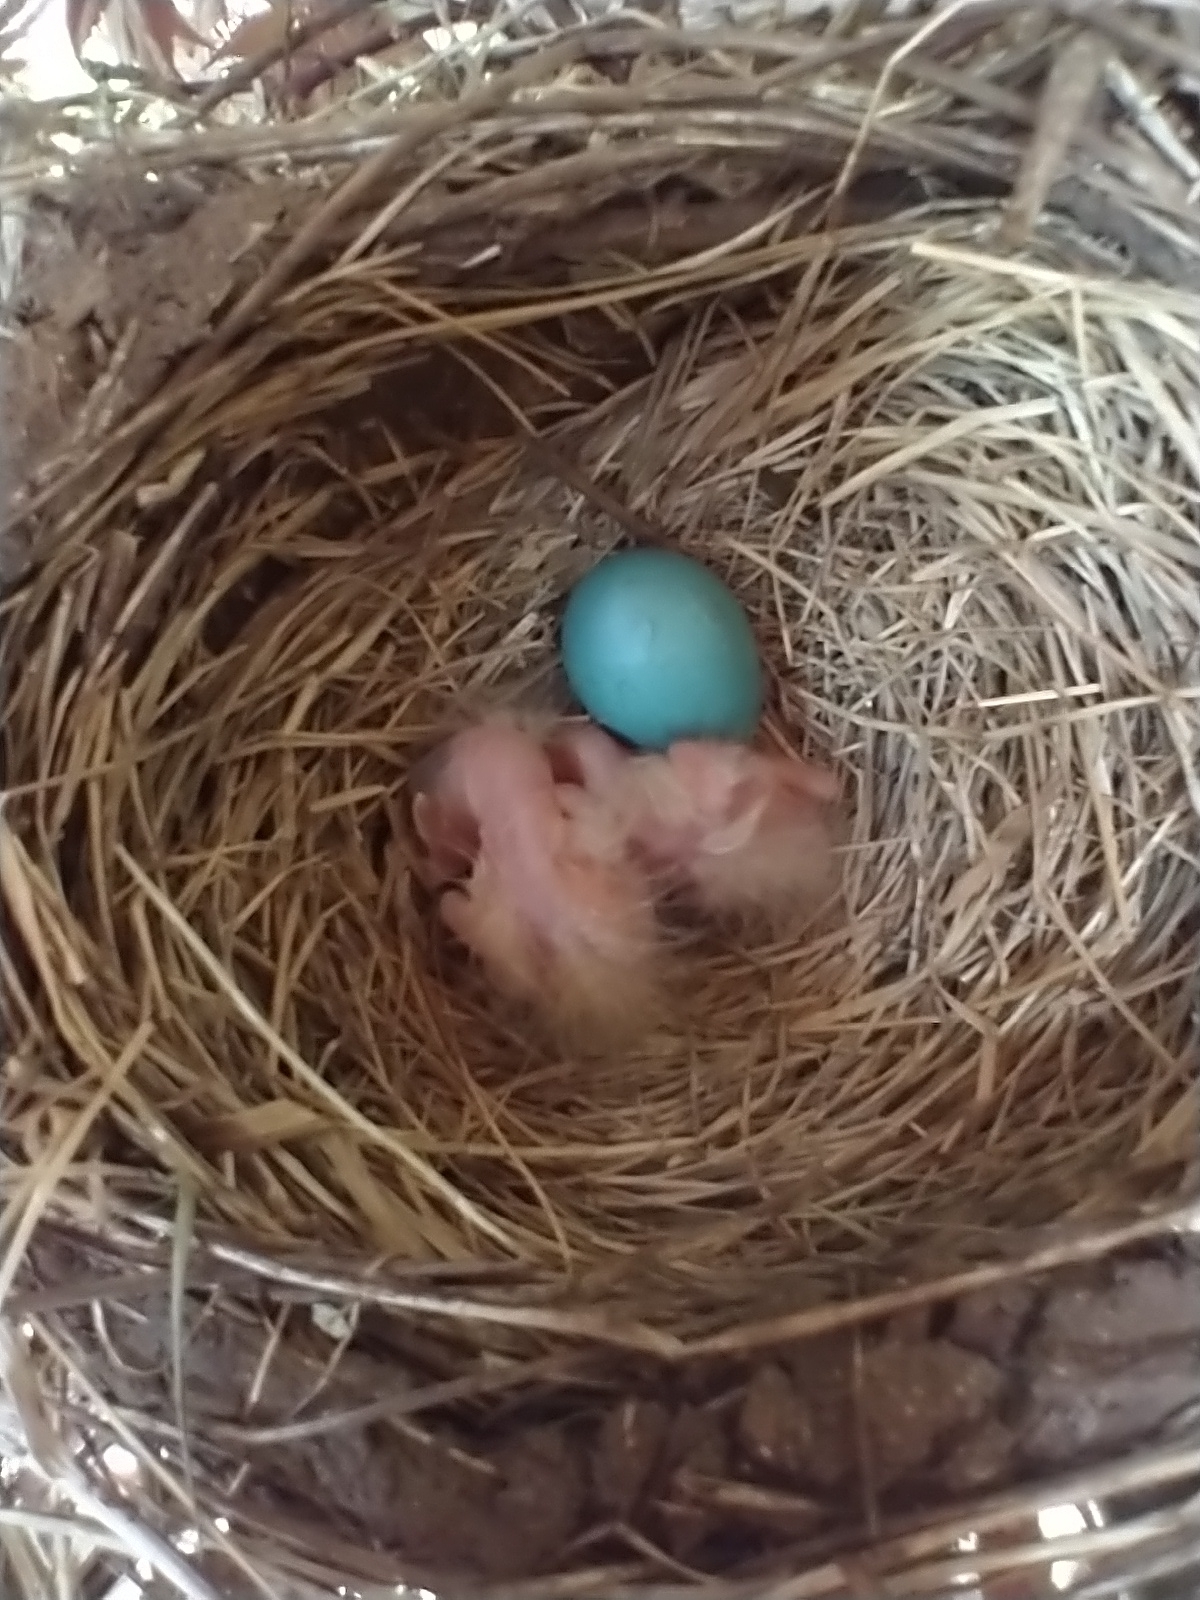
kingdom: Animalia
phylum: Chordata
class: Aves
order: Passeriformes
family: Turdidae
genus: Turdus
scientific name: Turdus migratorius
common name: American robin
